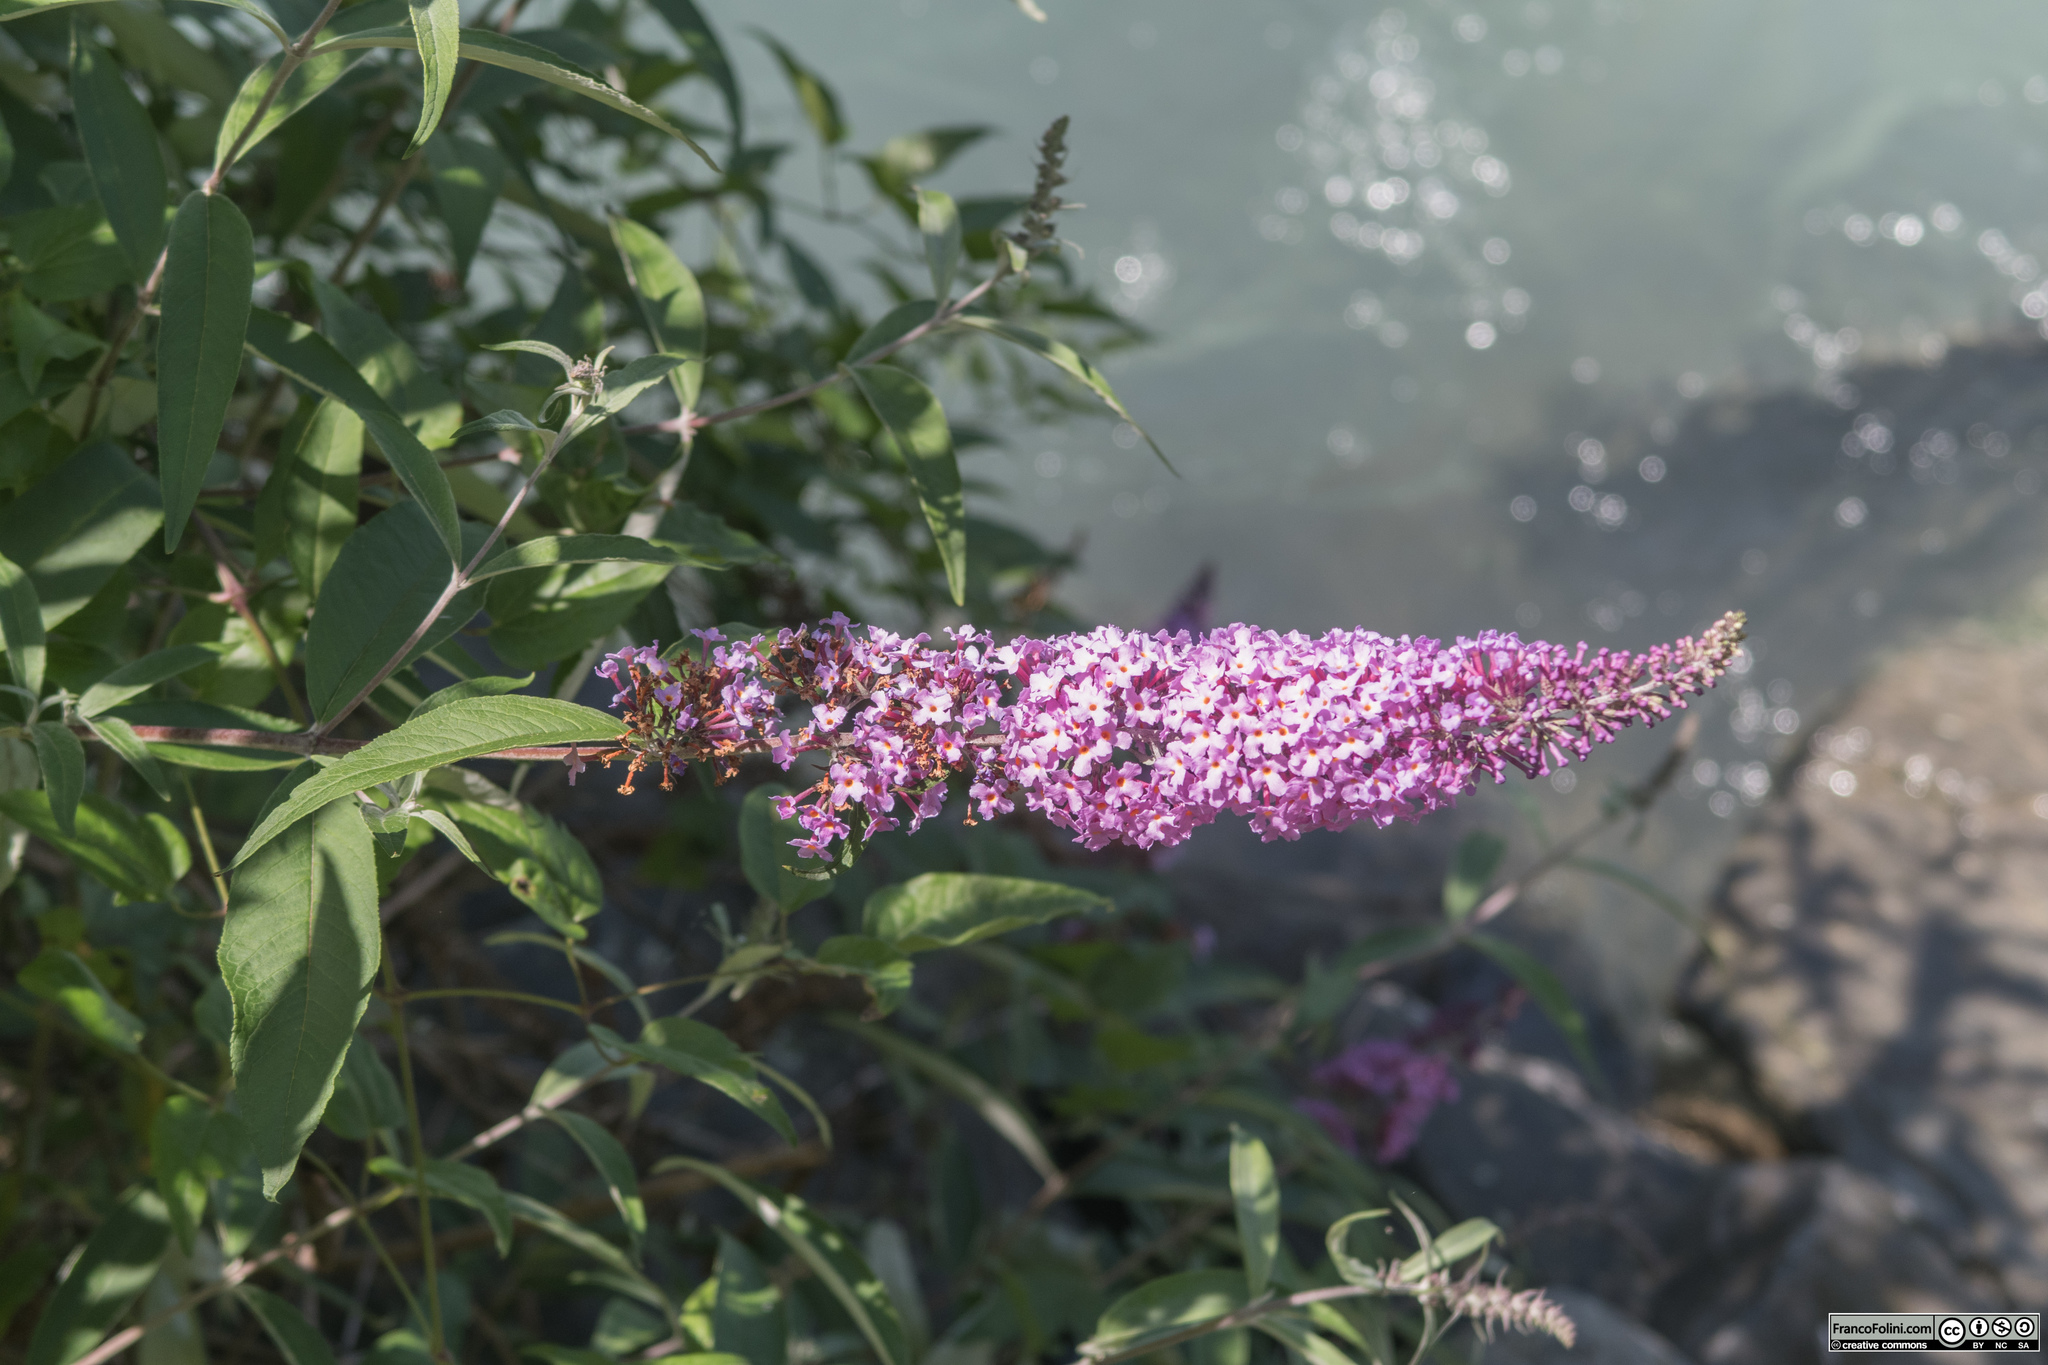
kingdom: Plantae
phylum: Tracheophyta
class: Magnoliopsida
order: Lamiales
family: Scrophulariaceae
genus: Buddleja
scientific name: Buddleja davidii
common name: Butterfly-bush
